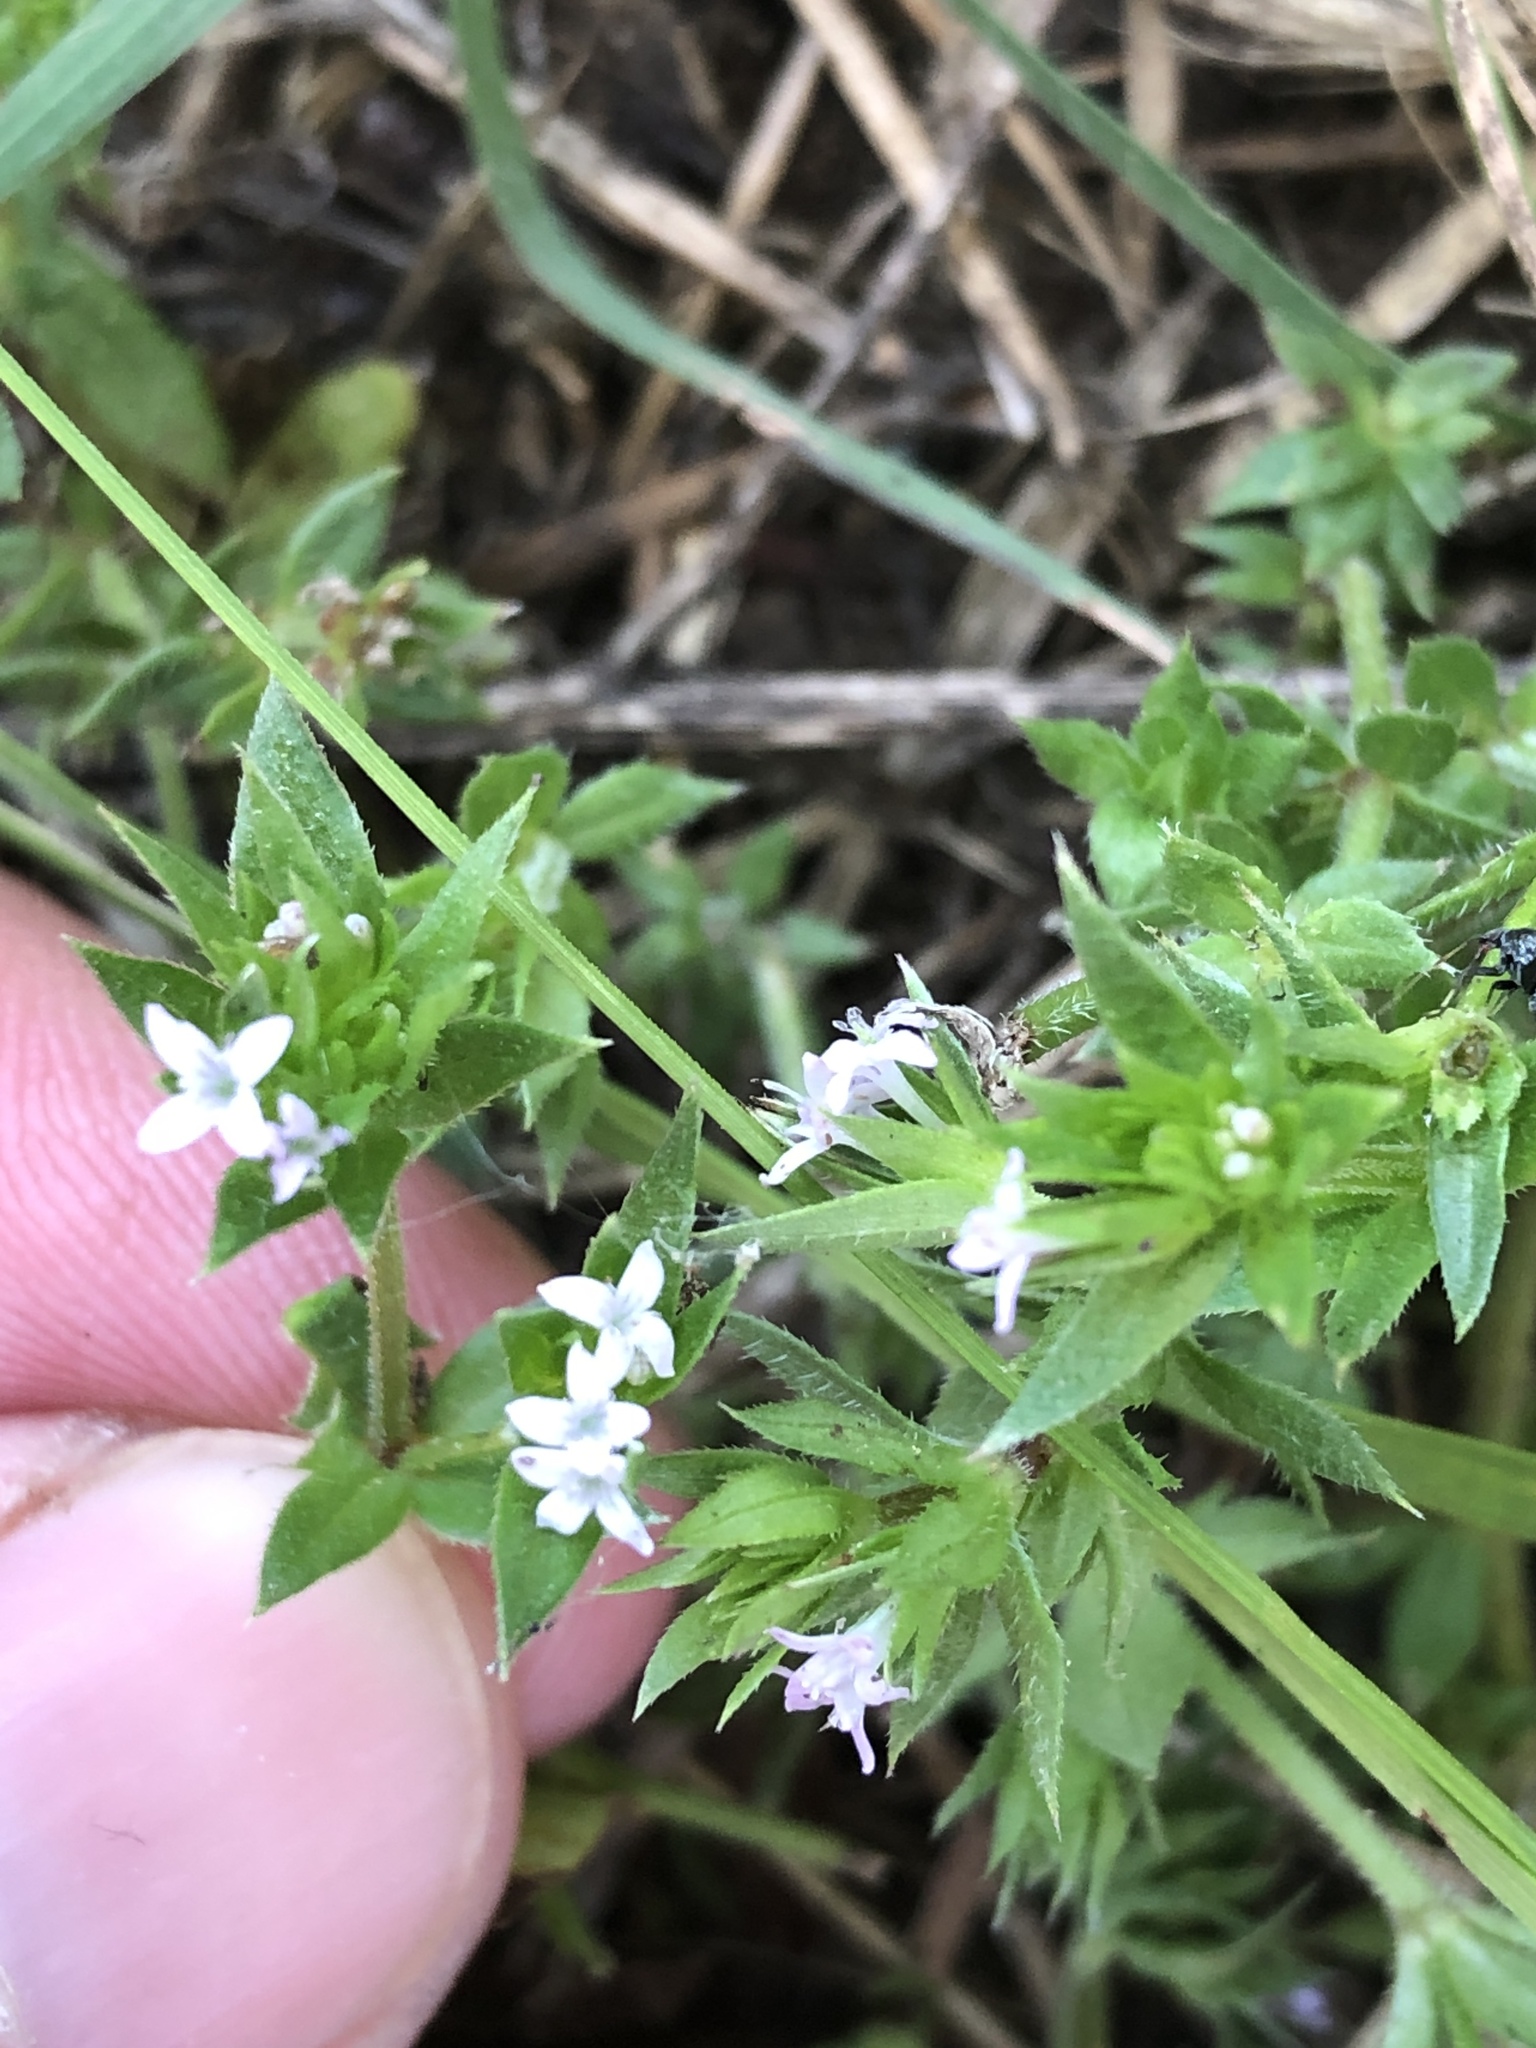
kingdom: Plantae
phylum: Tracheophyta
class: Magnoliopsida
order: Gentianales
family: Rubiaceae
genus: Sherardia
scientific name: Sherardia arvensis
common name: Field madder
